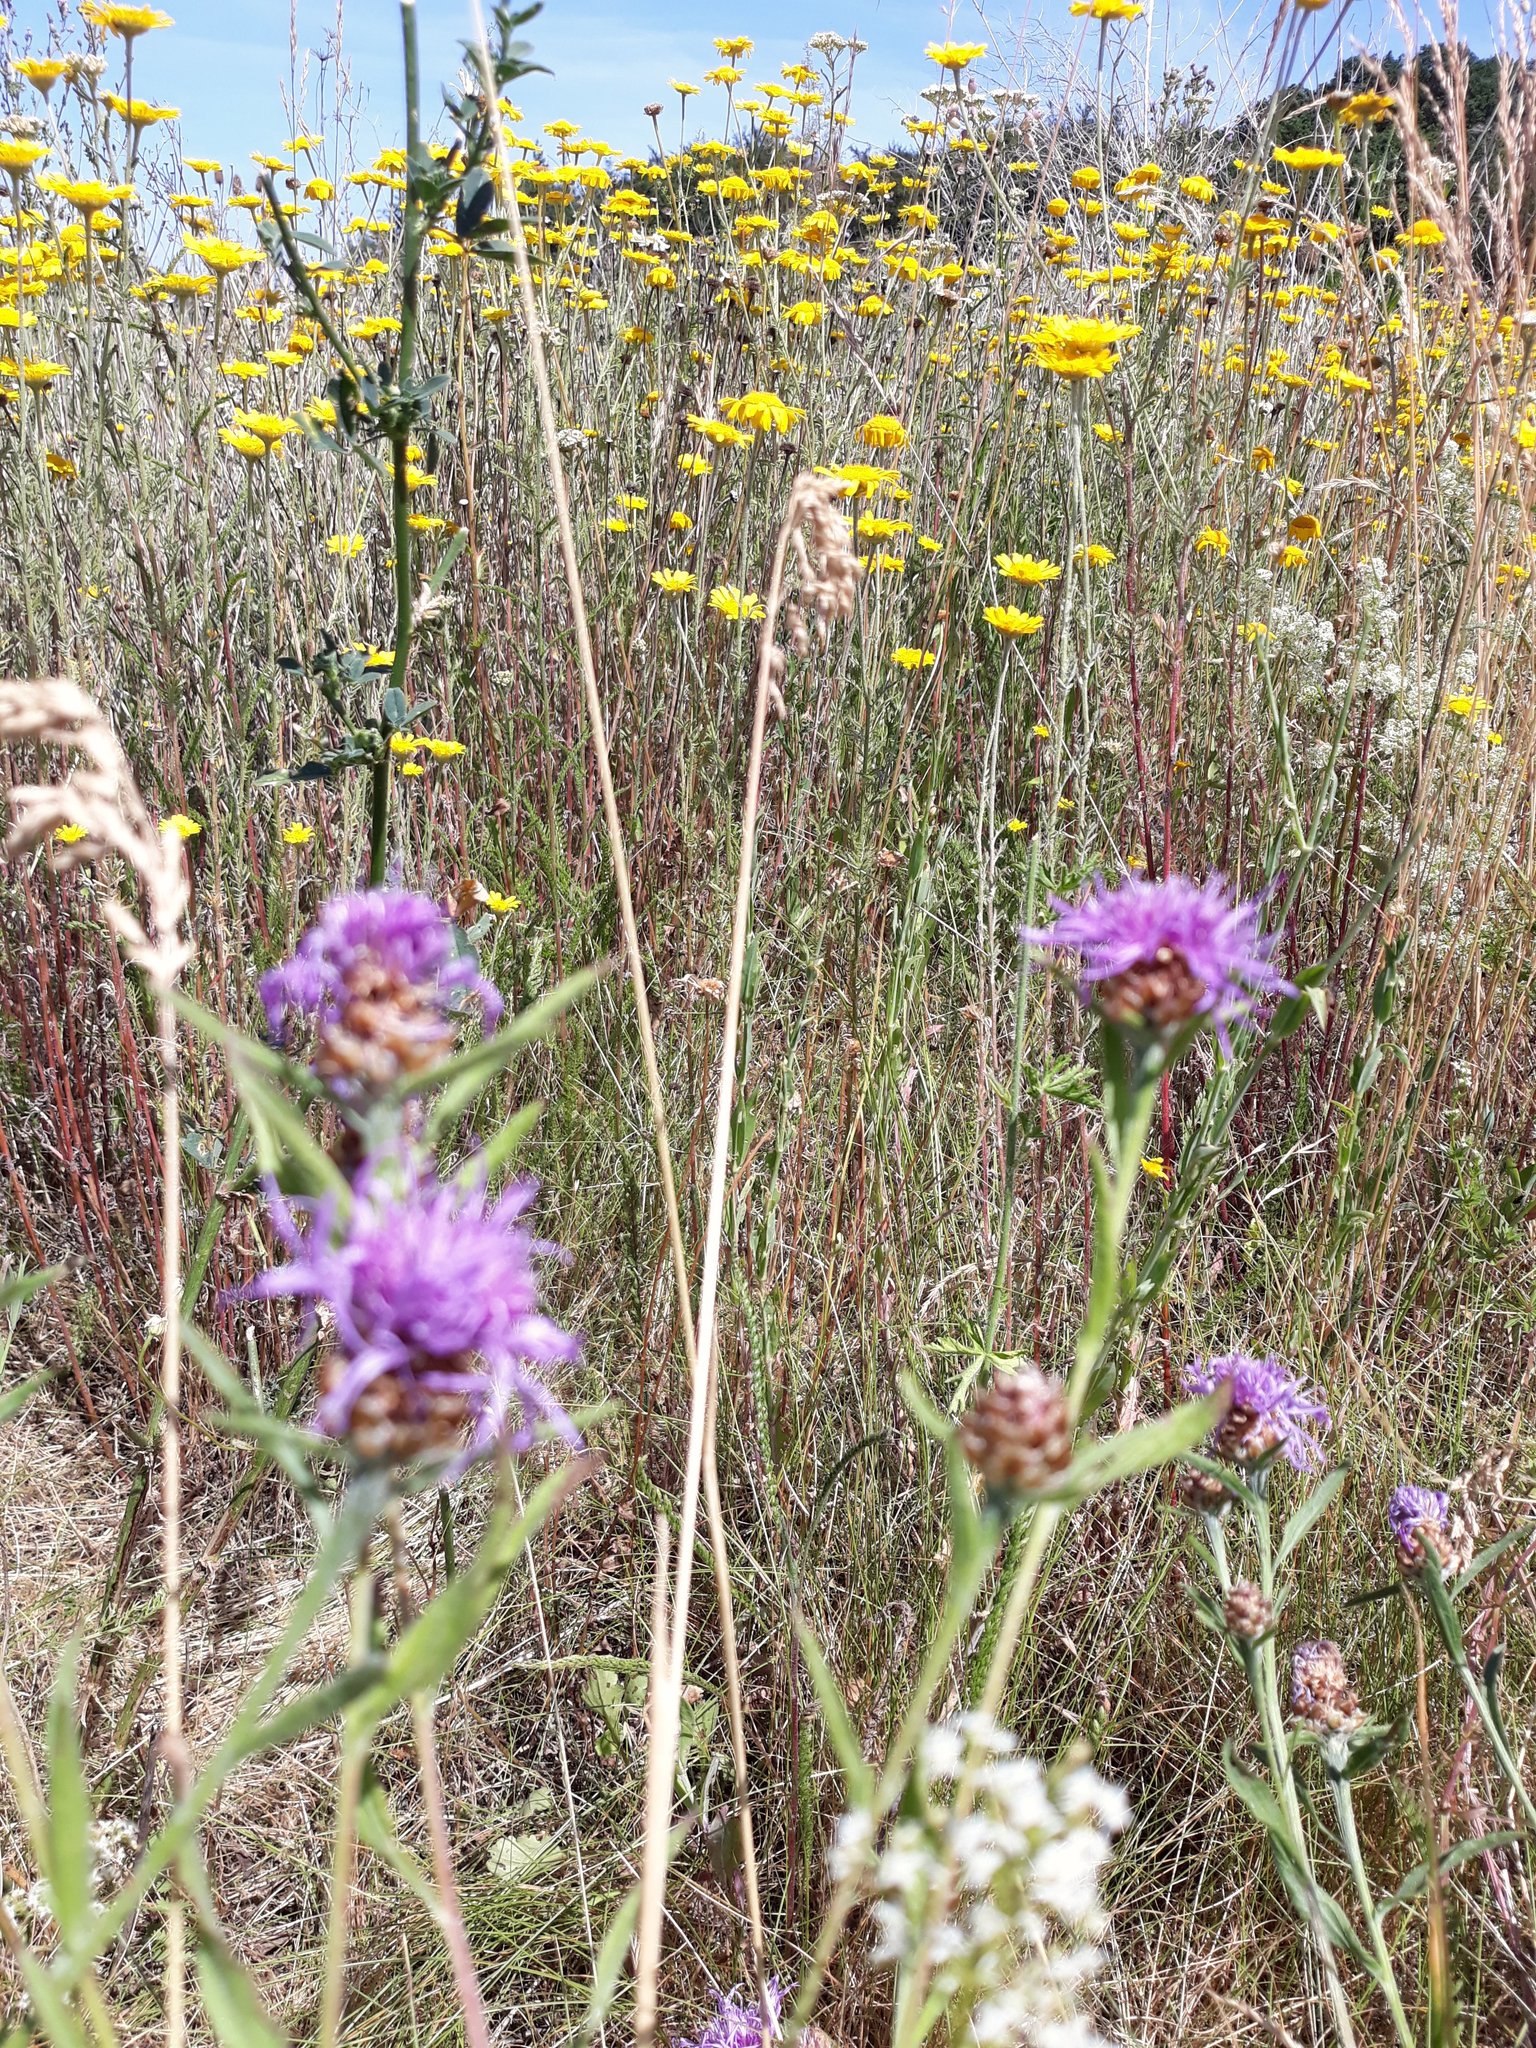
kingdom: Plantae
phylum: Tracheophyta
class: Magnoliopsida
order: Asterales
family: Asteraceae
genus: Centaurea
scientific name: Centaurea jacea
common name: Brown knapweed
